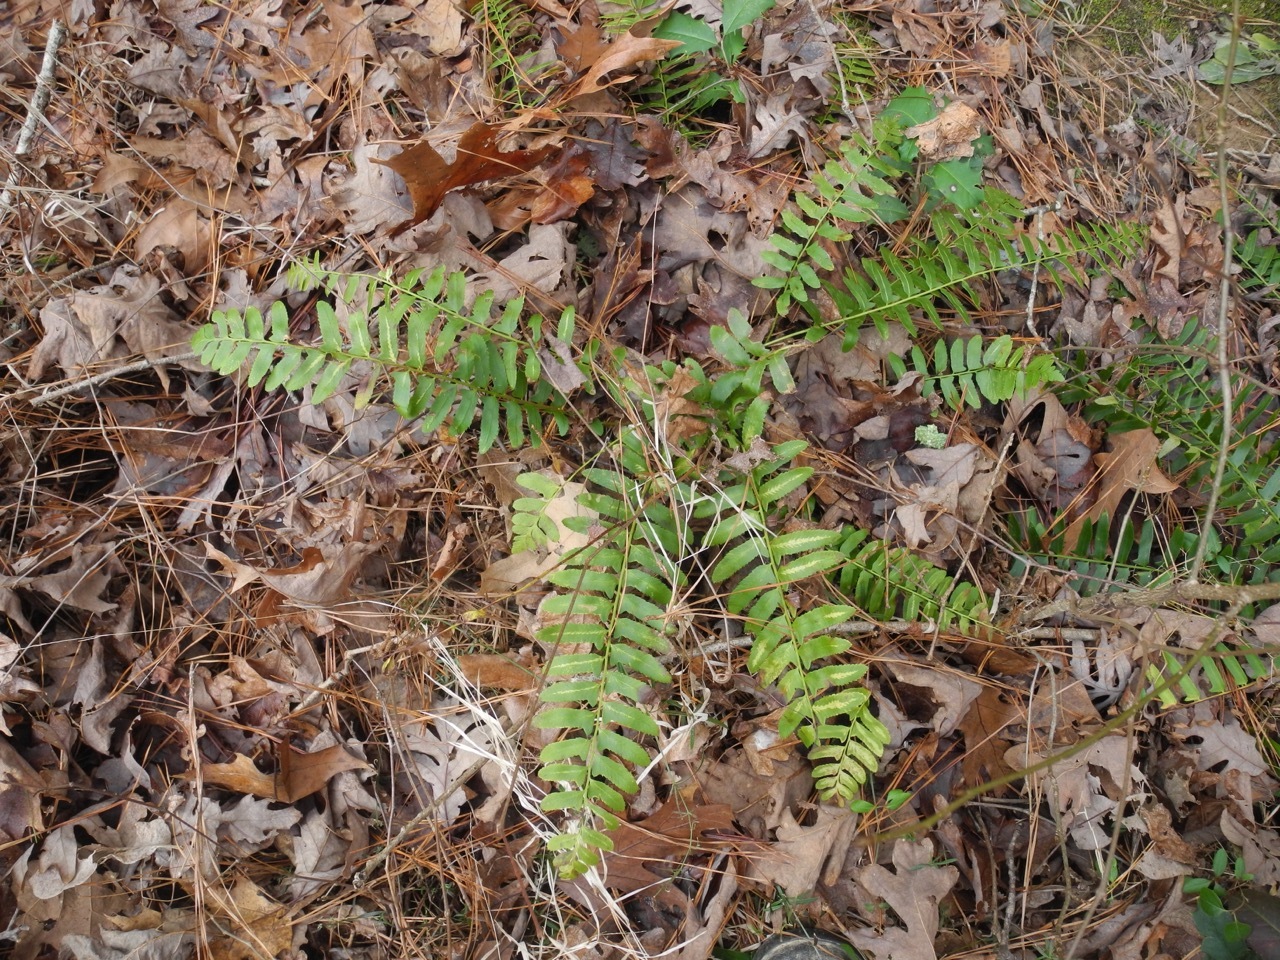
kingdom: Plantae
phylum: Tracheophyta
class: Polypodiopsida
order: Polypodiales
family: Dryopteridaceae
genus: Polystichum
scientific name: Polystichum acrostichoides
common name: Christmas fern
